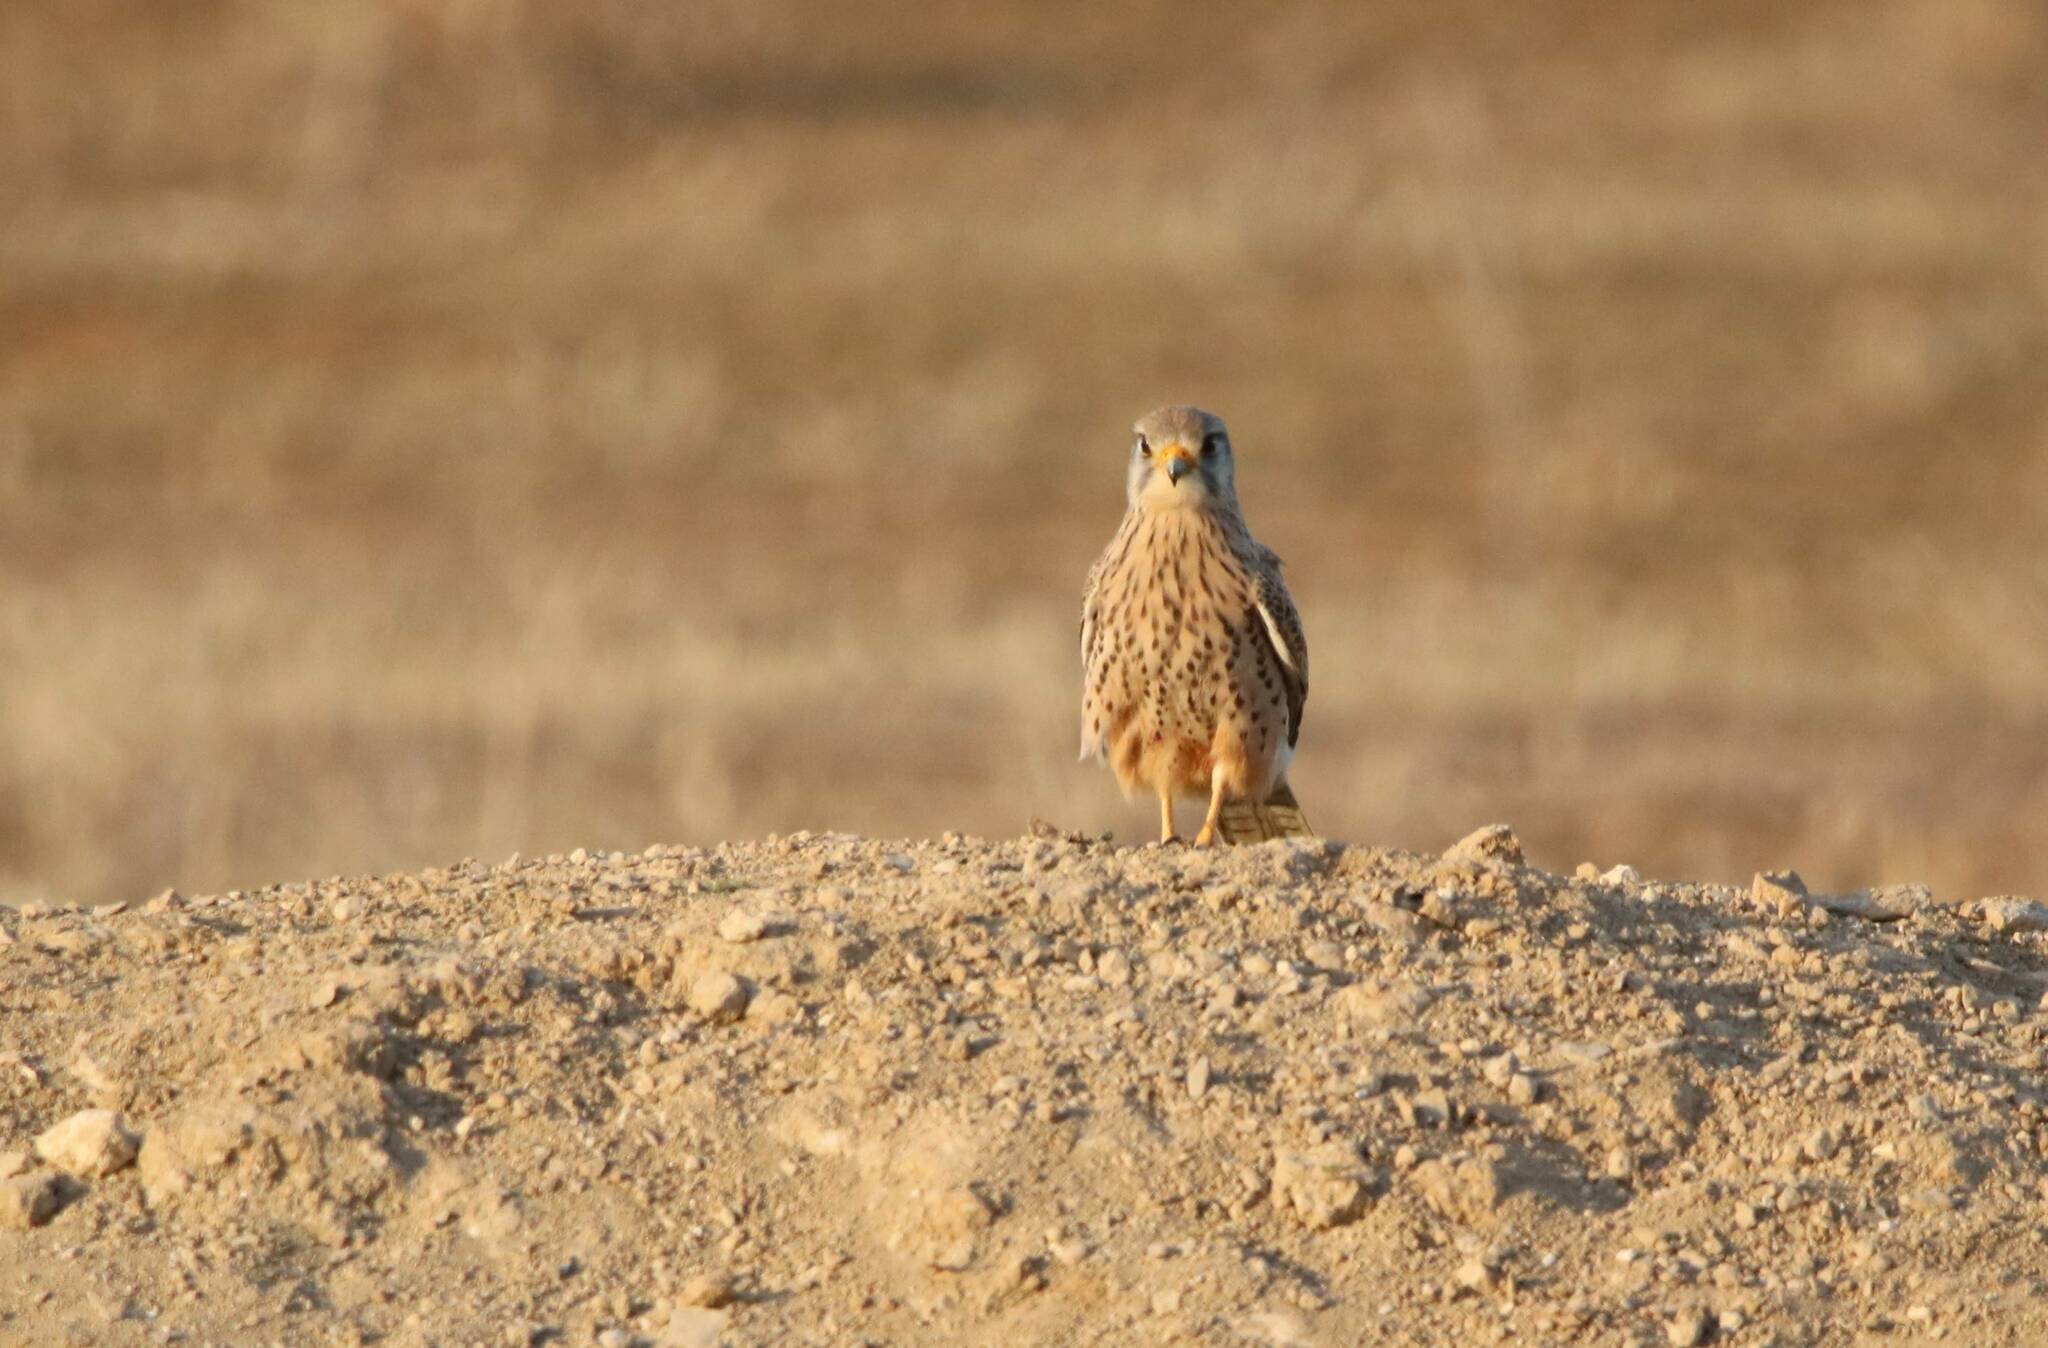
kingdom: Animalia
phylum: Chordata
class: Aves
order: Falconiformes
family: Falconidae
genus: Falco
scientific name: Falco tinnunculus
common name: Common kestrel
